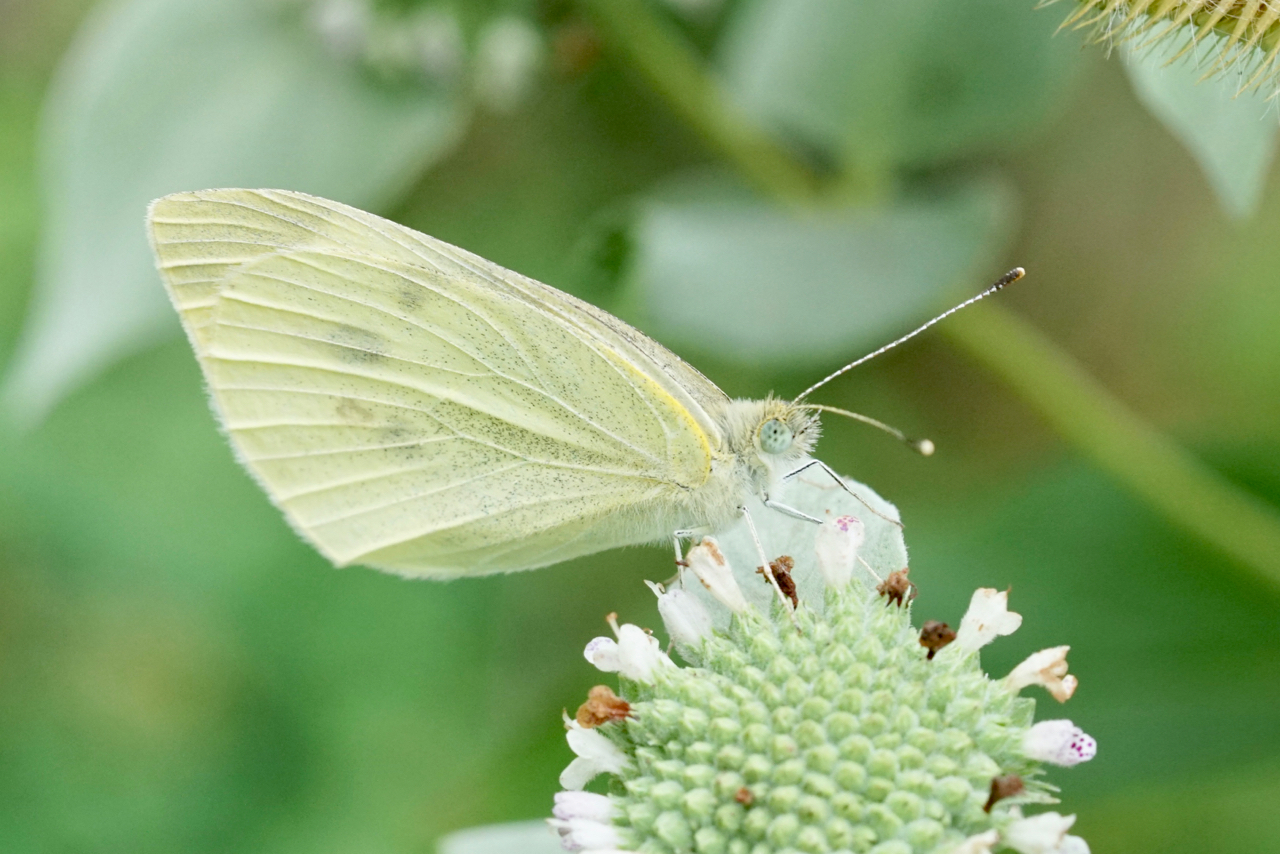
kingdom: Animalia
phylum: Arthropoda
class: Insecta
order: Lepidoptera
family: Pieridae
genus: Pieris
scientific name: Pieris rapae
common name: Small white
